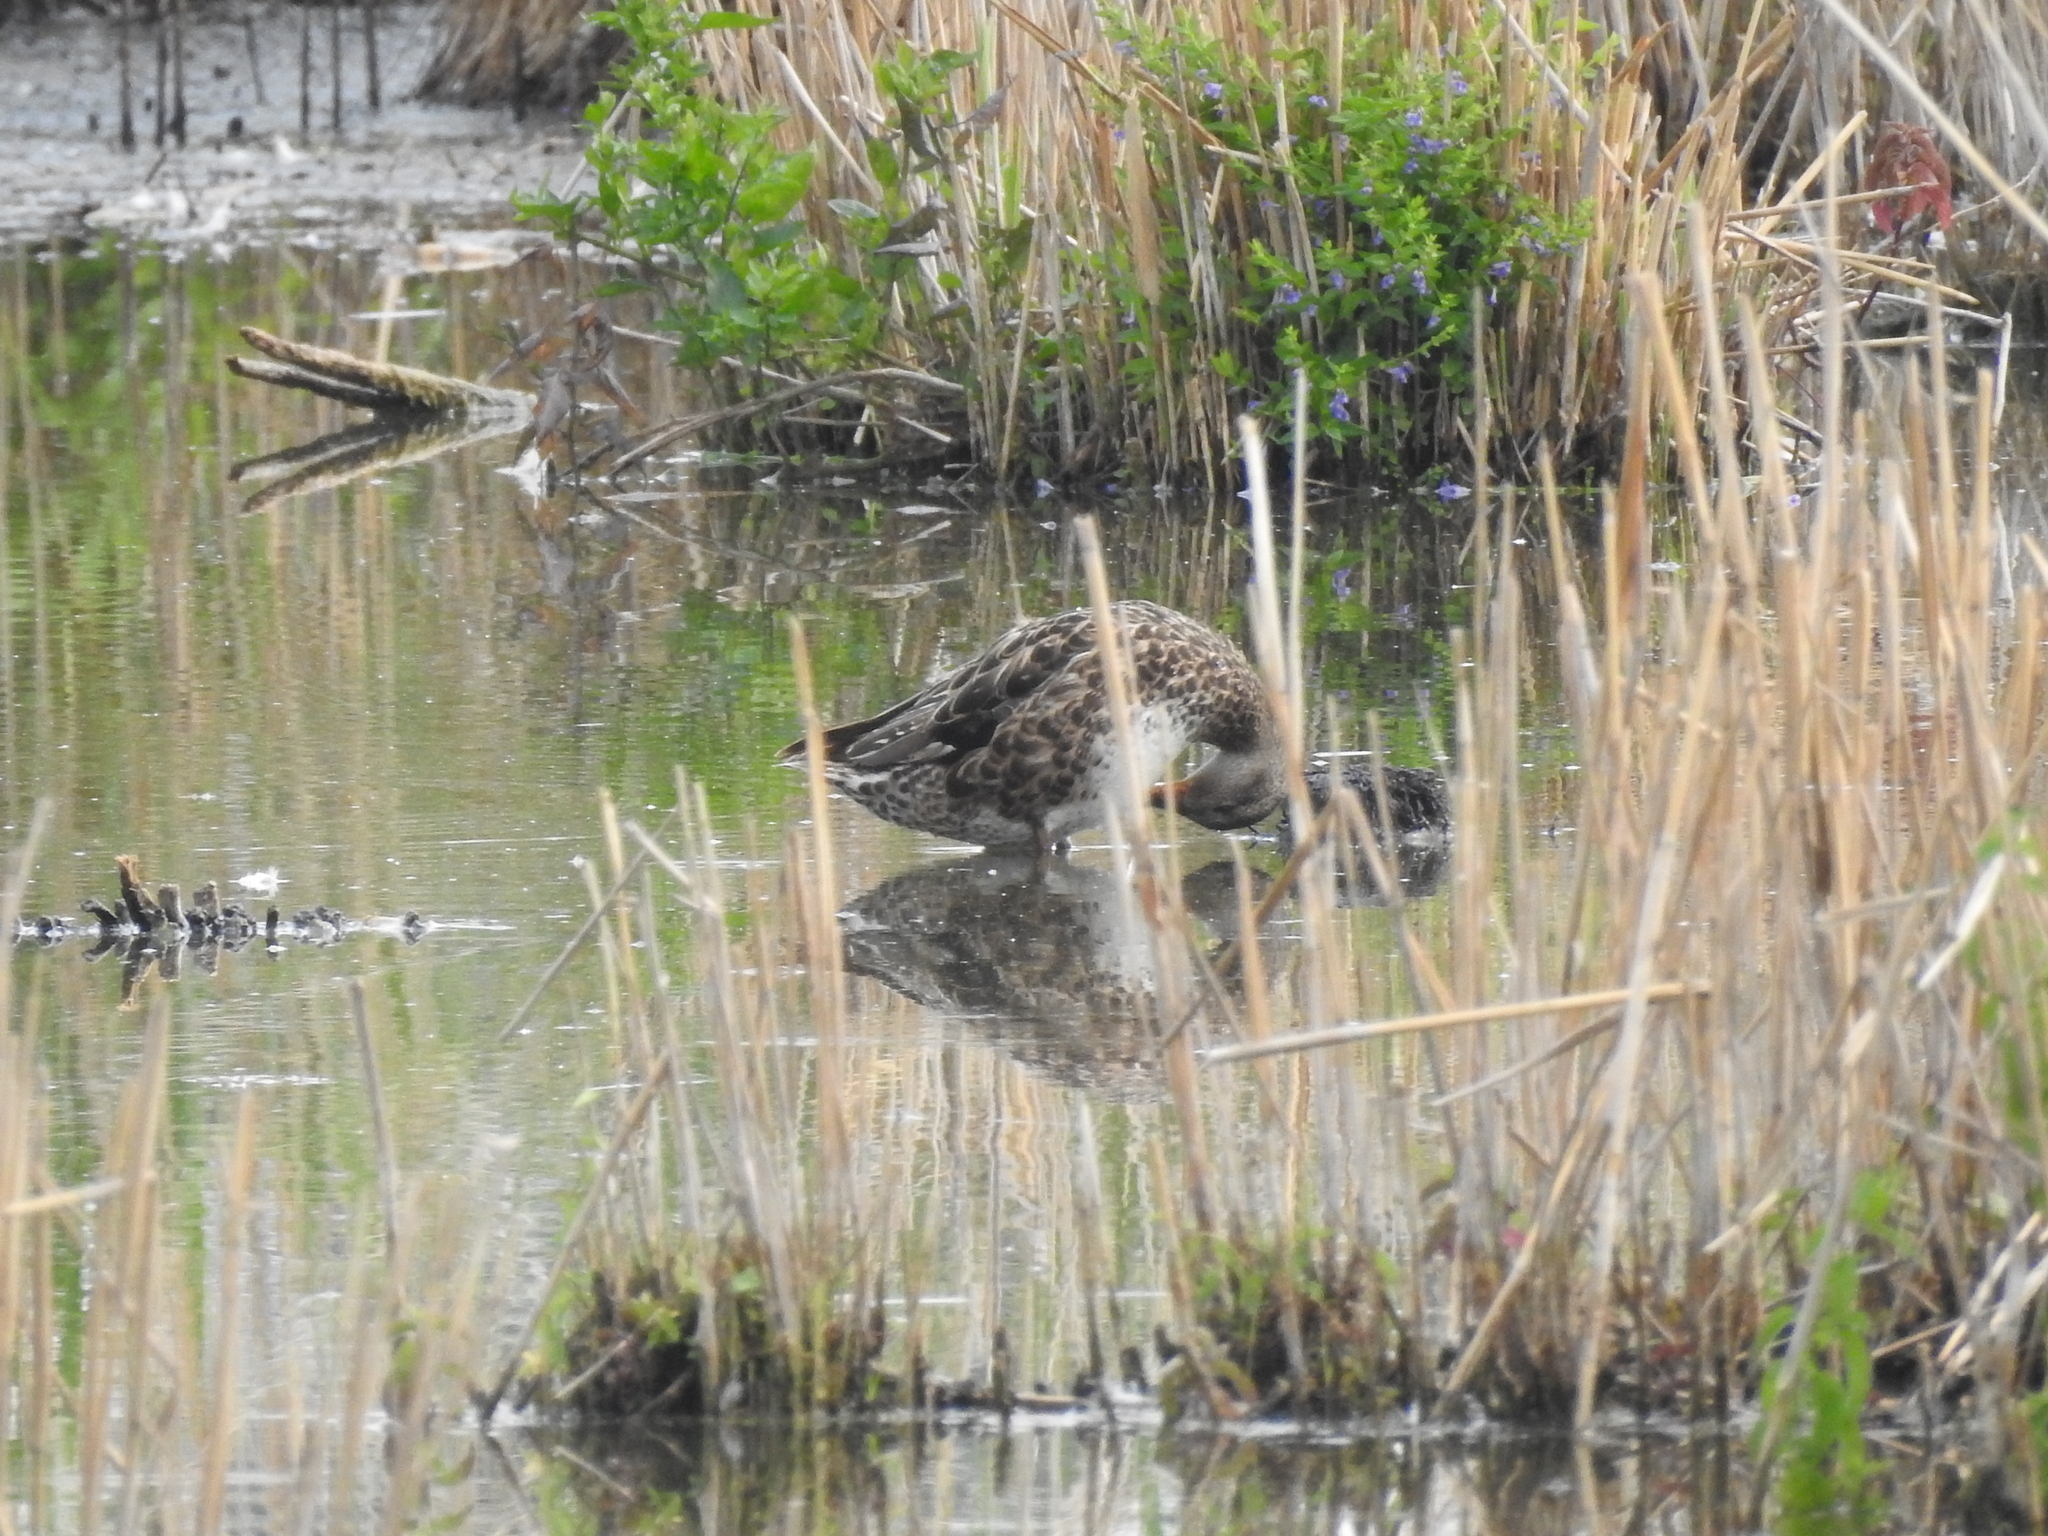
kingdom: Animalia
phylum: Chordata
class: Aves
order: Anseriformes
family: Anatidae
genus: Anas
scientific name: Anas platyrhynchos
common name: Mallard
